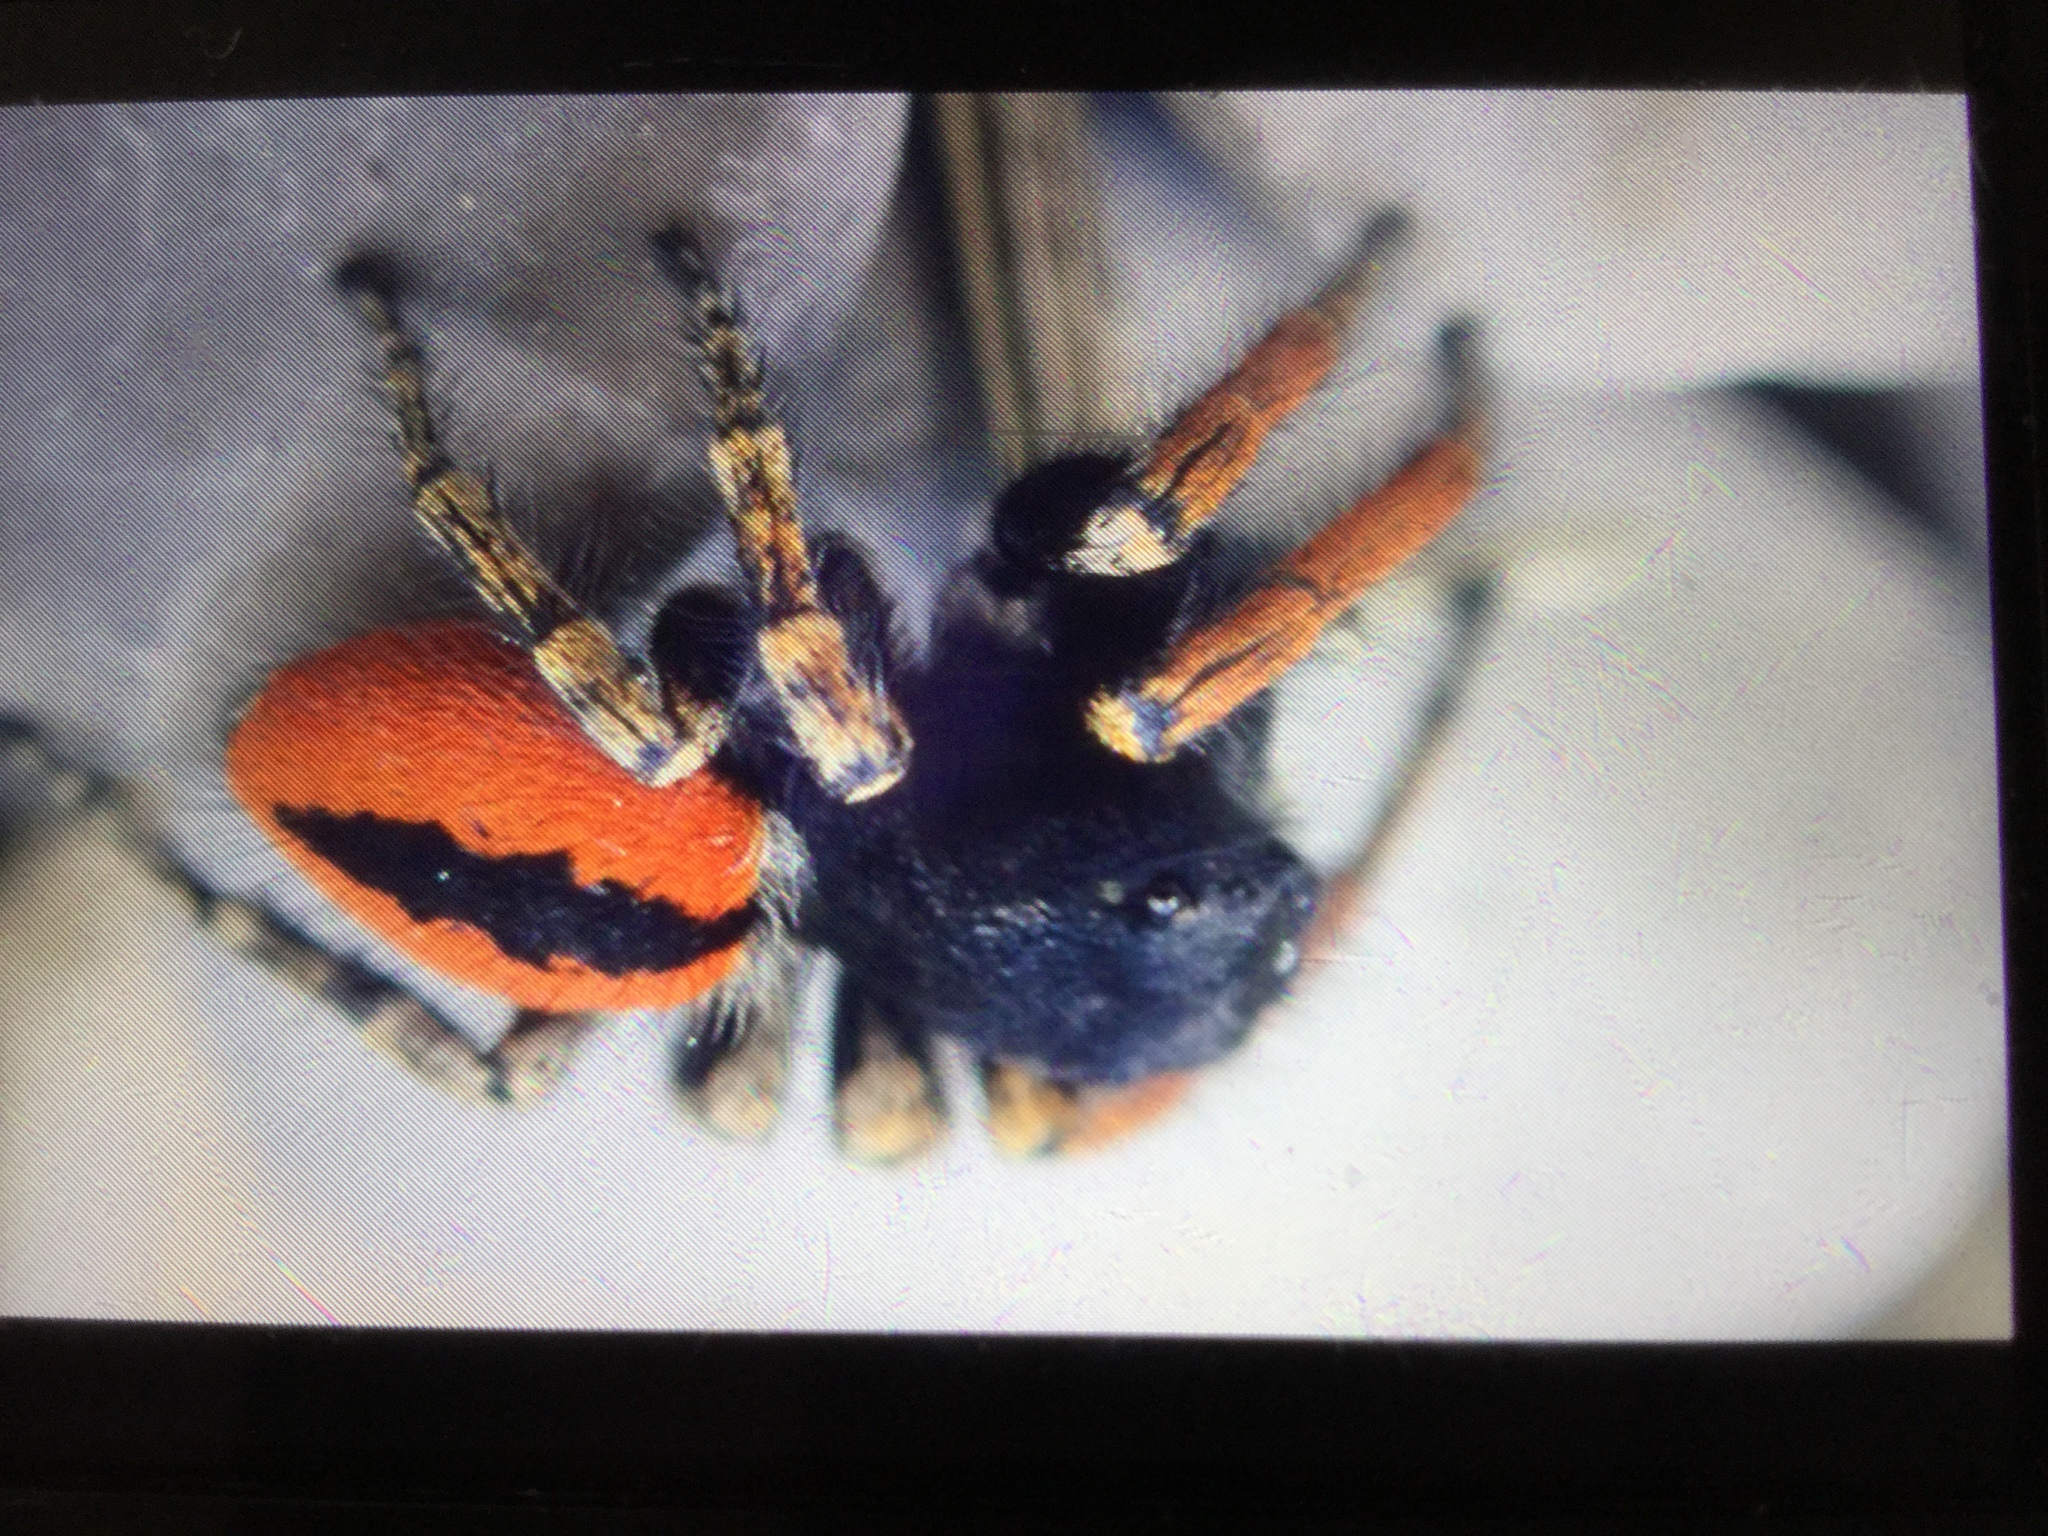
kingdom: Animalia
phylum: Arthropoda
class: Arachnida
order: Araneae
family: Salticidae
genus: Philaeus
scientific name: Philaeus chrysops
